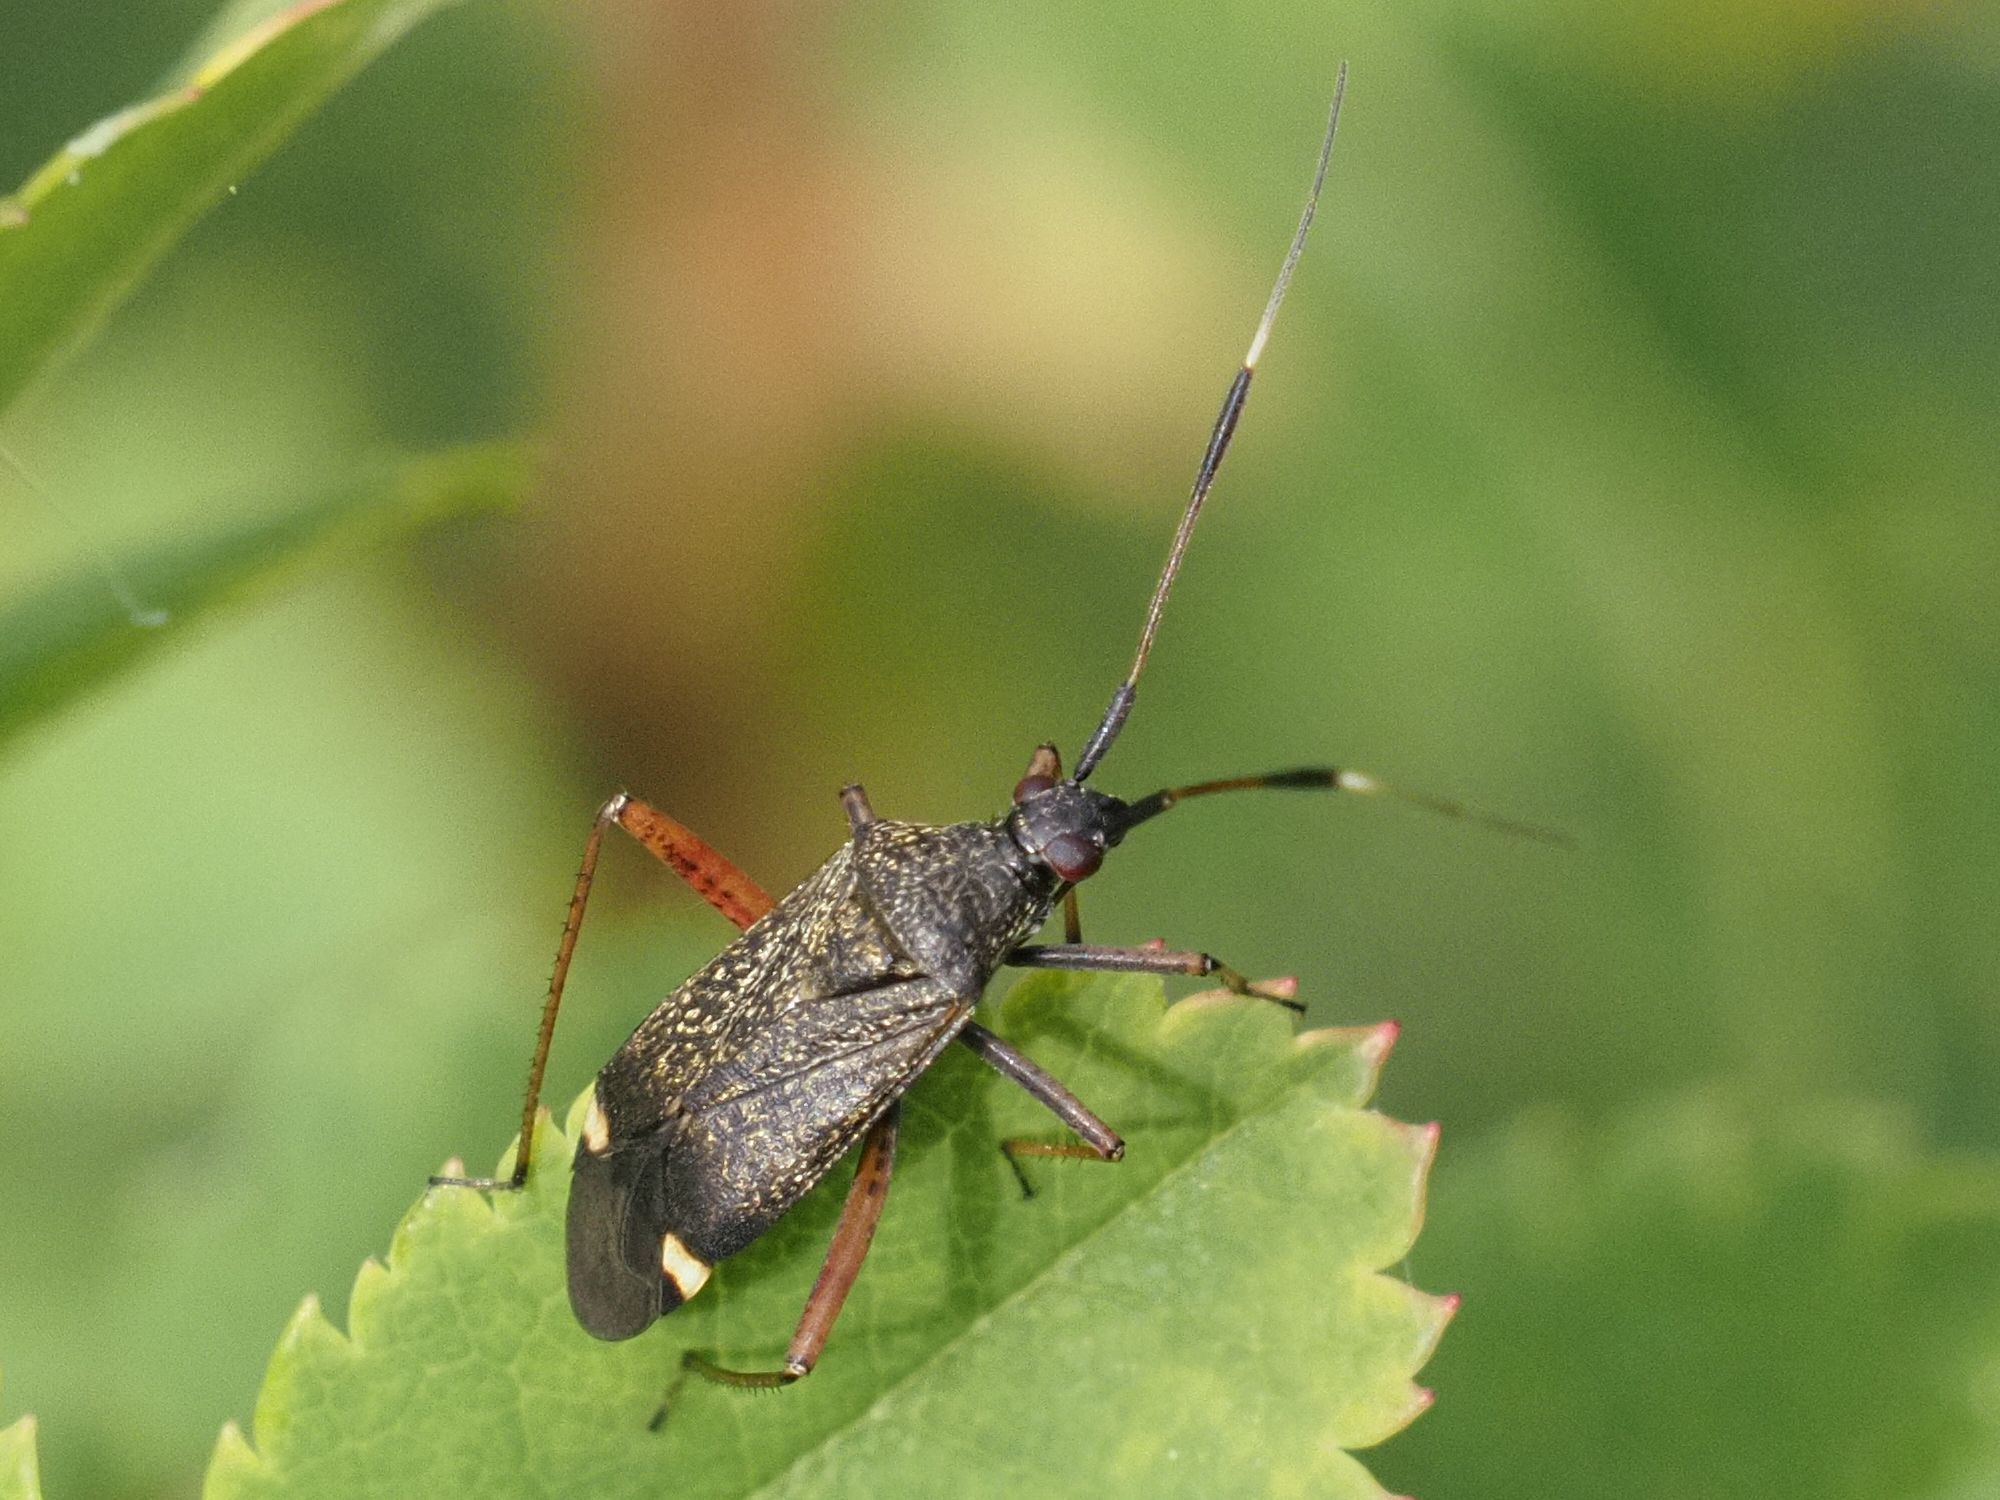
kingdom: Animalia
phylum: Arthropoda
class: Insecta
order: Hemiptera
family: Miridae
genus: Closterotomus
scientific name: Closterotomus biclavatus
